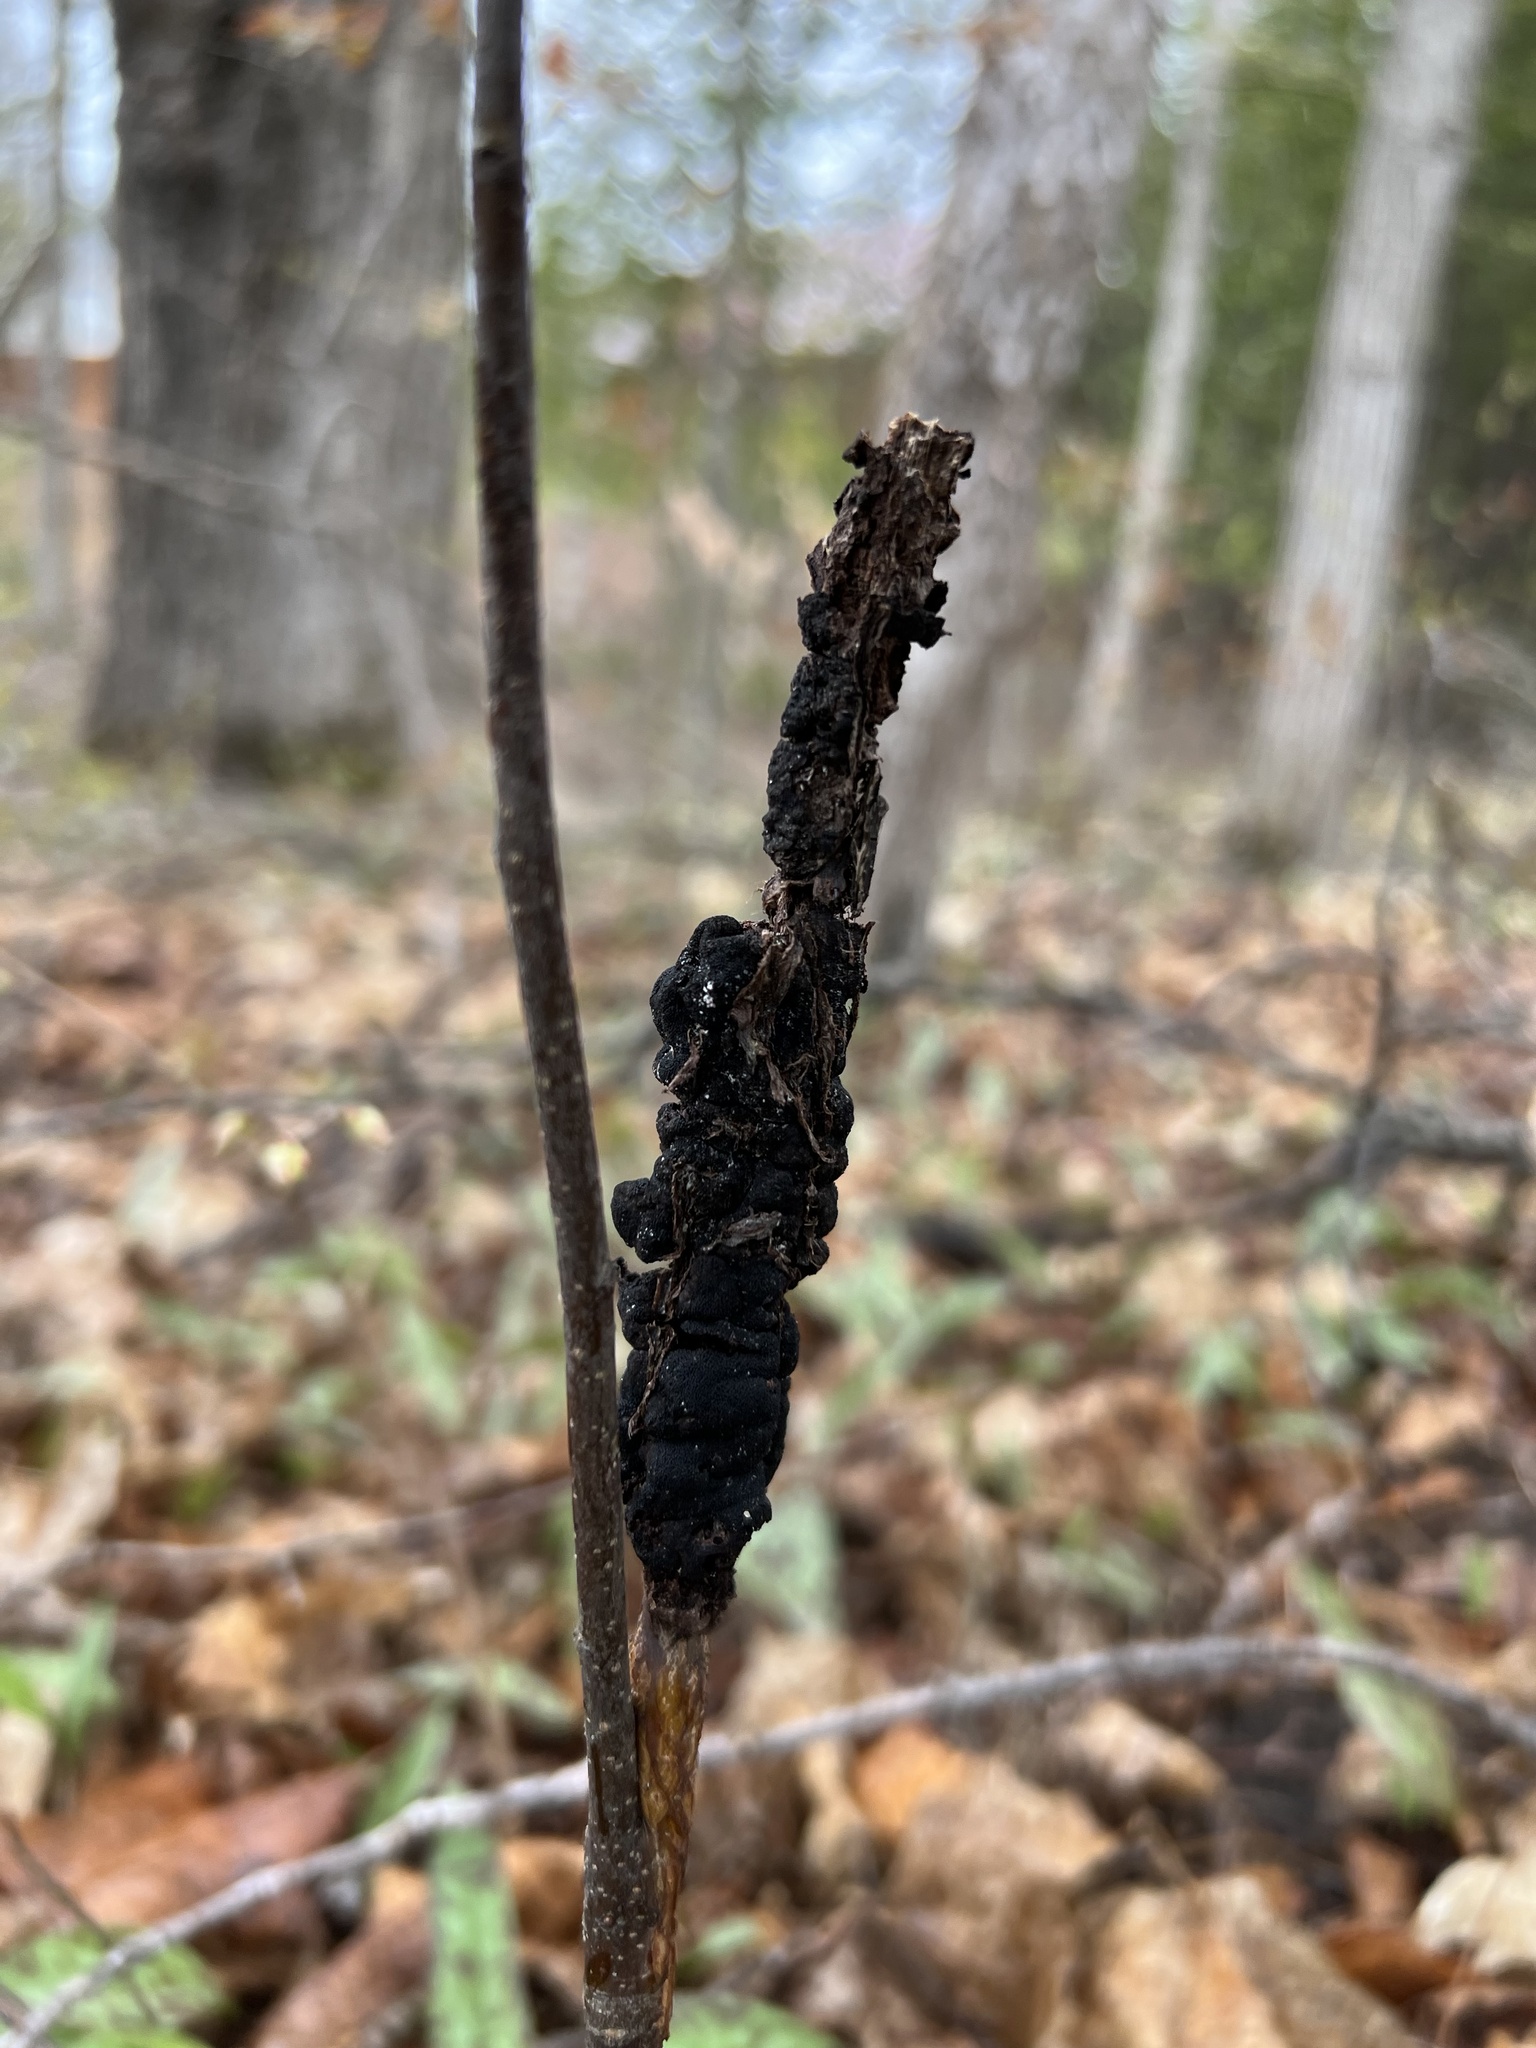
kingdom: Fungi
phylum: Ascomycota
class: Dothideomycetes
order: Venturiales
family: Venturiaceae
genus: Apiosporina
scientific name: Apiosporina morbosa
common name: Black knot
